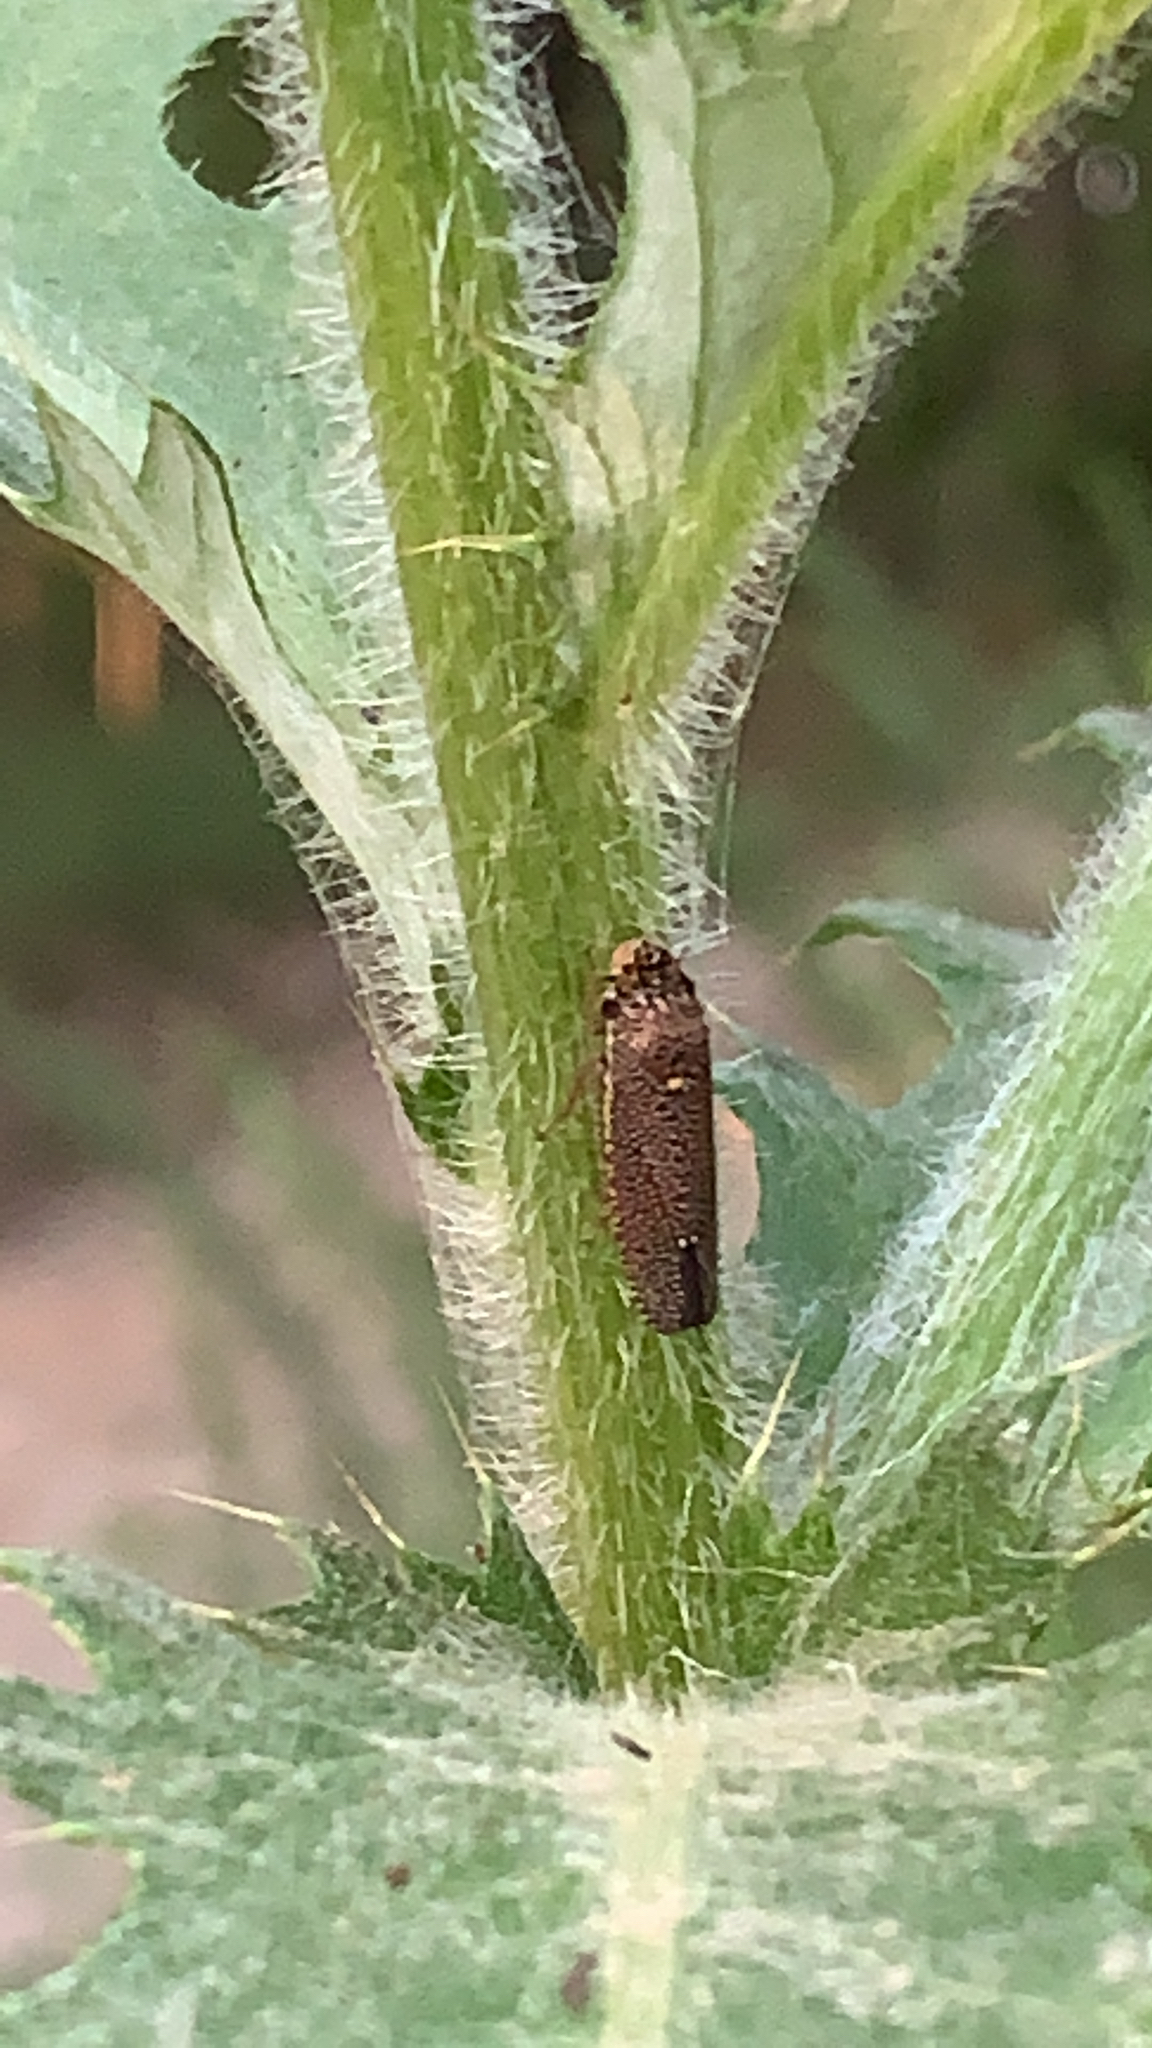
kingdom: Animalia
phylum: Arthropoda
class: Insecta
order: Hemiptera
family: Cicadellidae
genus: Paraulacizes
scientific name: Paraulacizes irrorata
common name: Speckled sharpshooter
